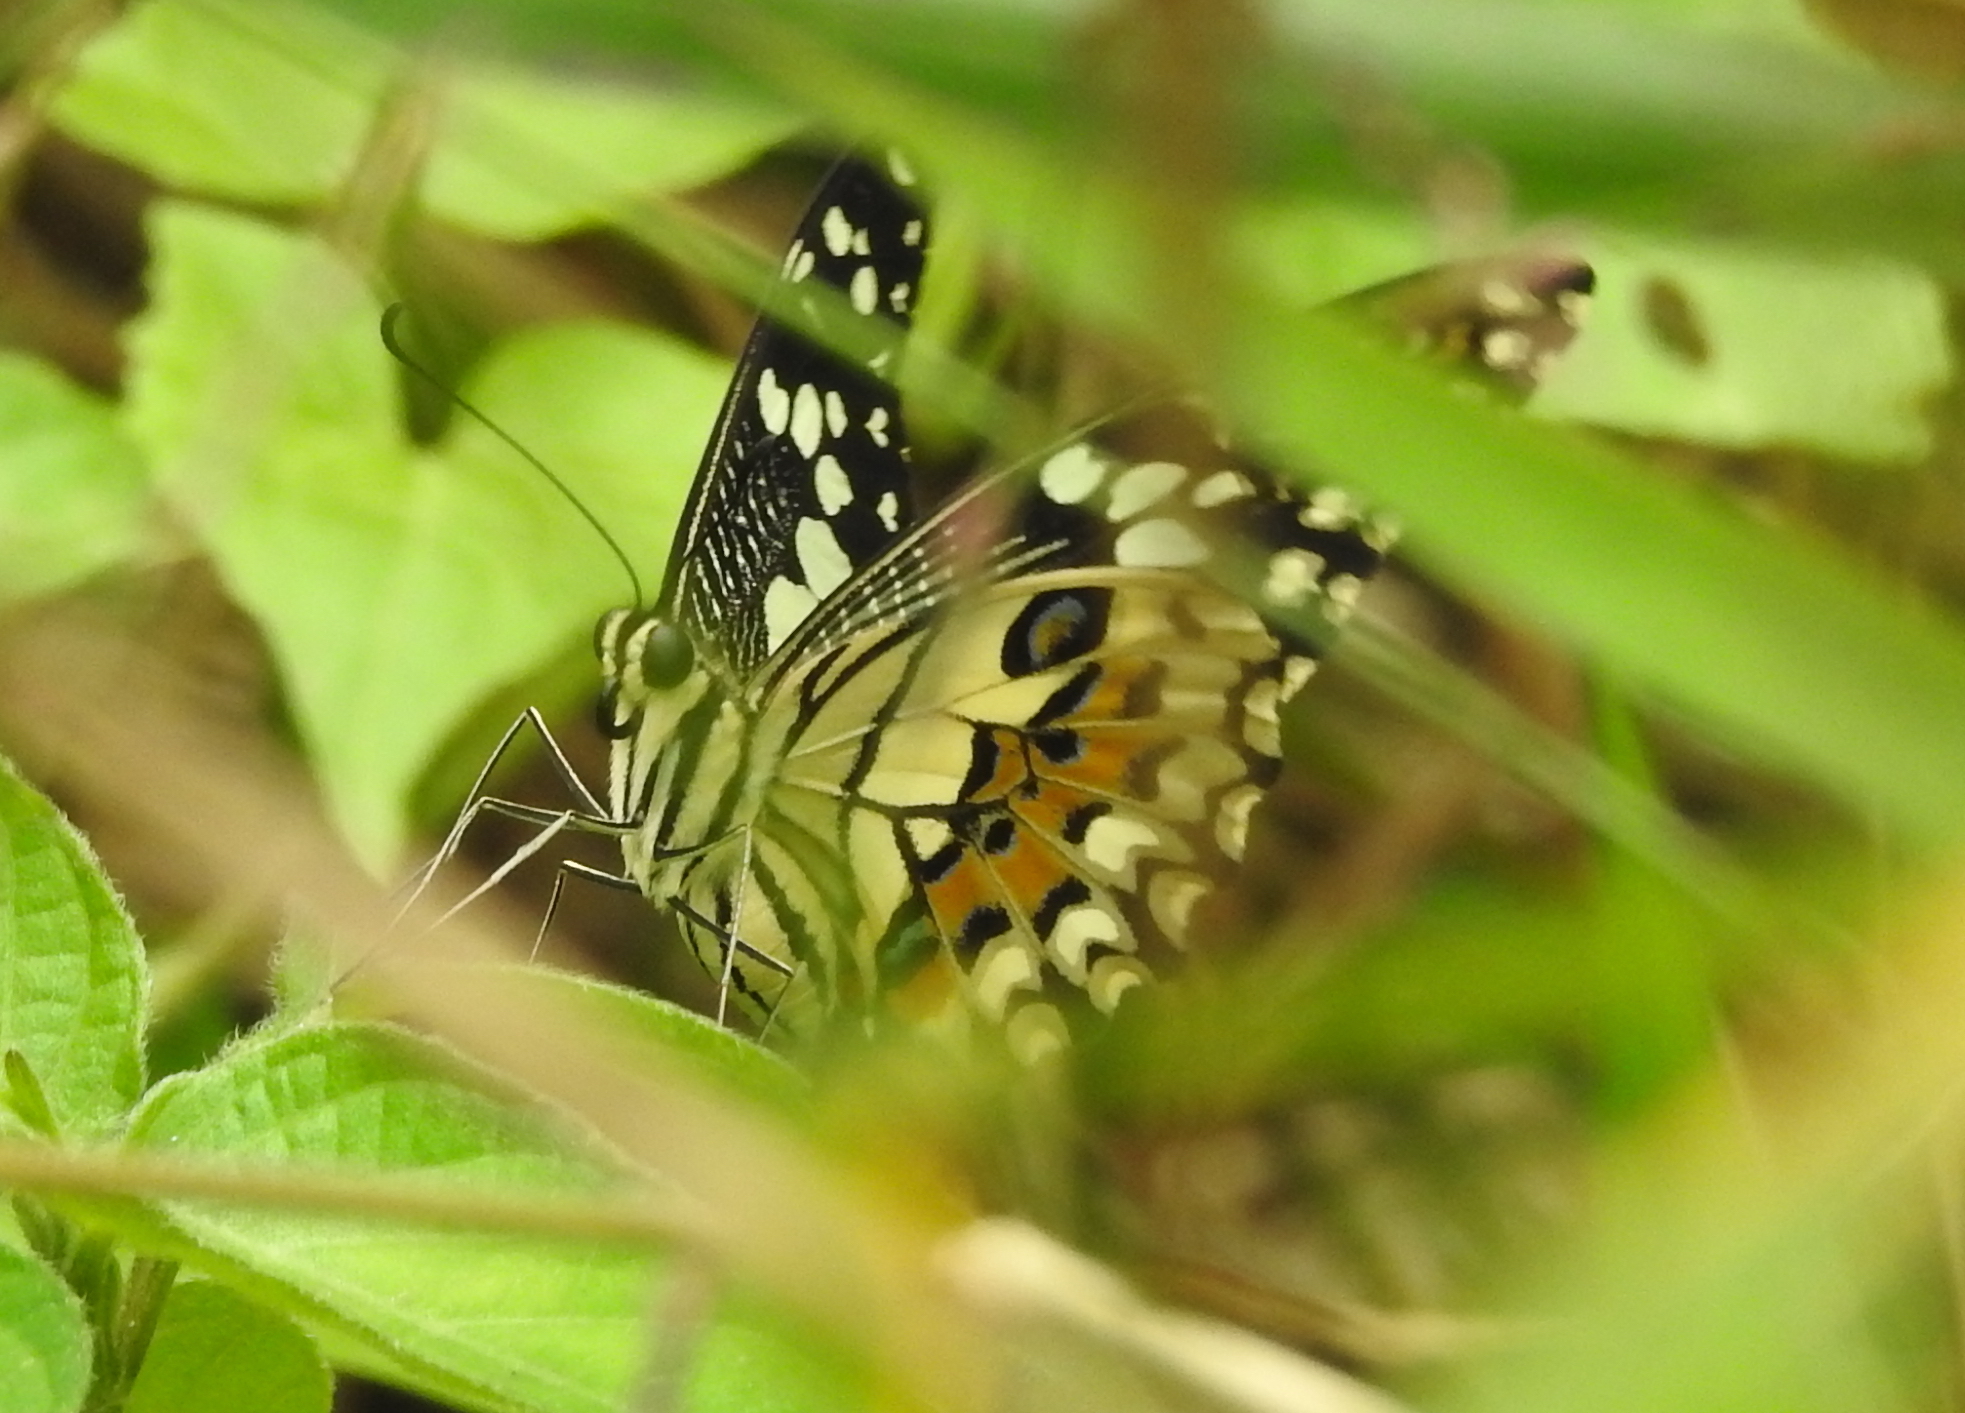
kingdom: Animalia
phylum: Arthropoda
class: Insecta
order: Lepidoptera
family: Papilionidae
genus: Papilio
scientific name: Papilio demoleus
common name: Lime butterfly
